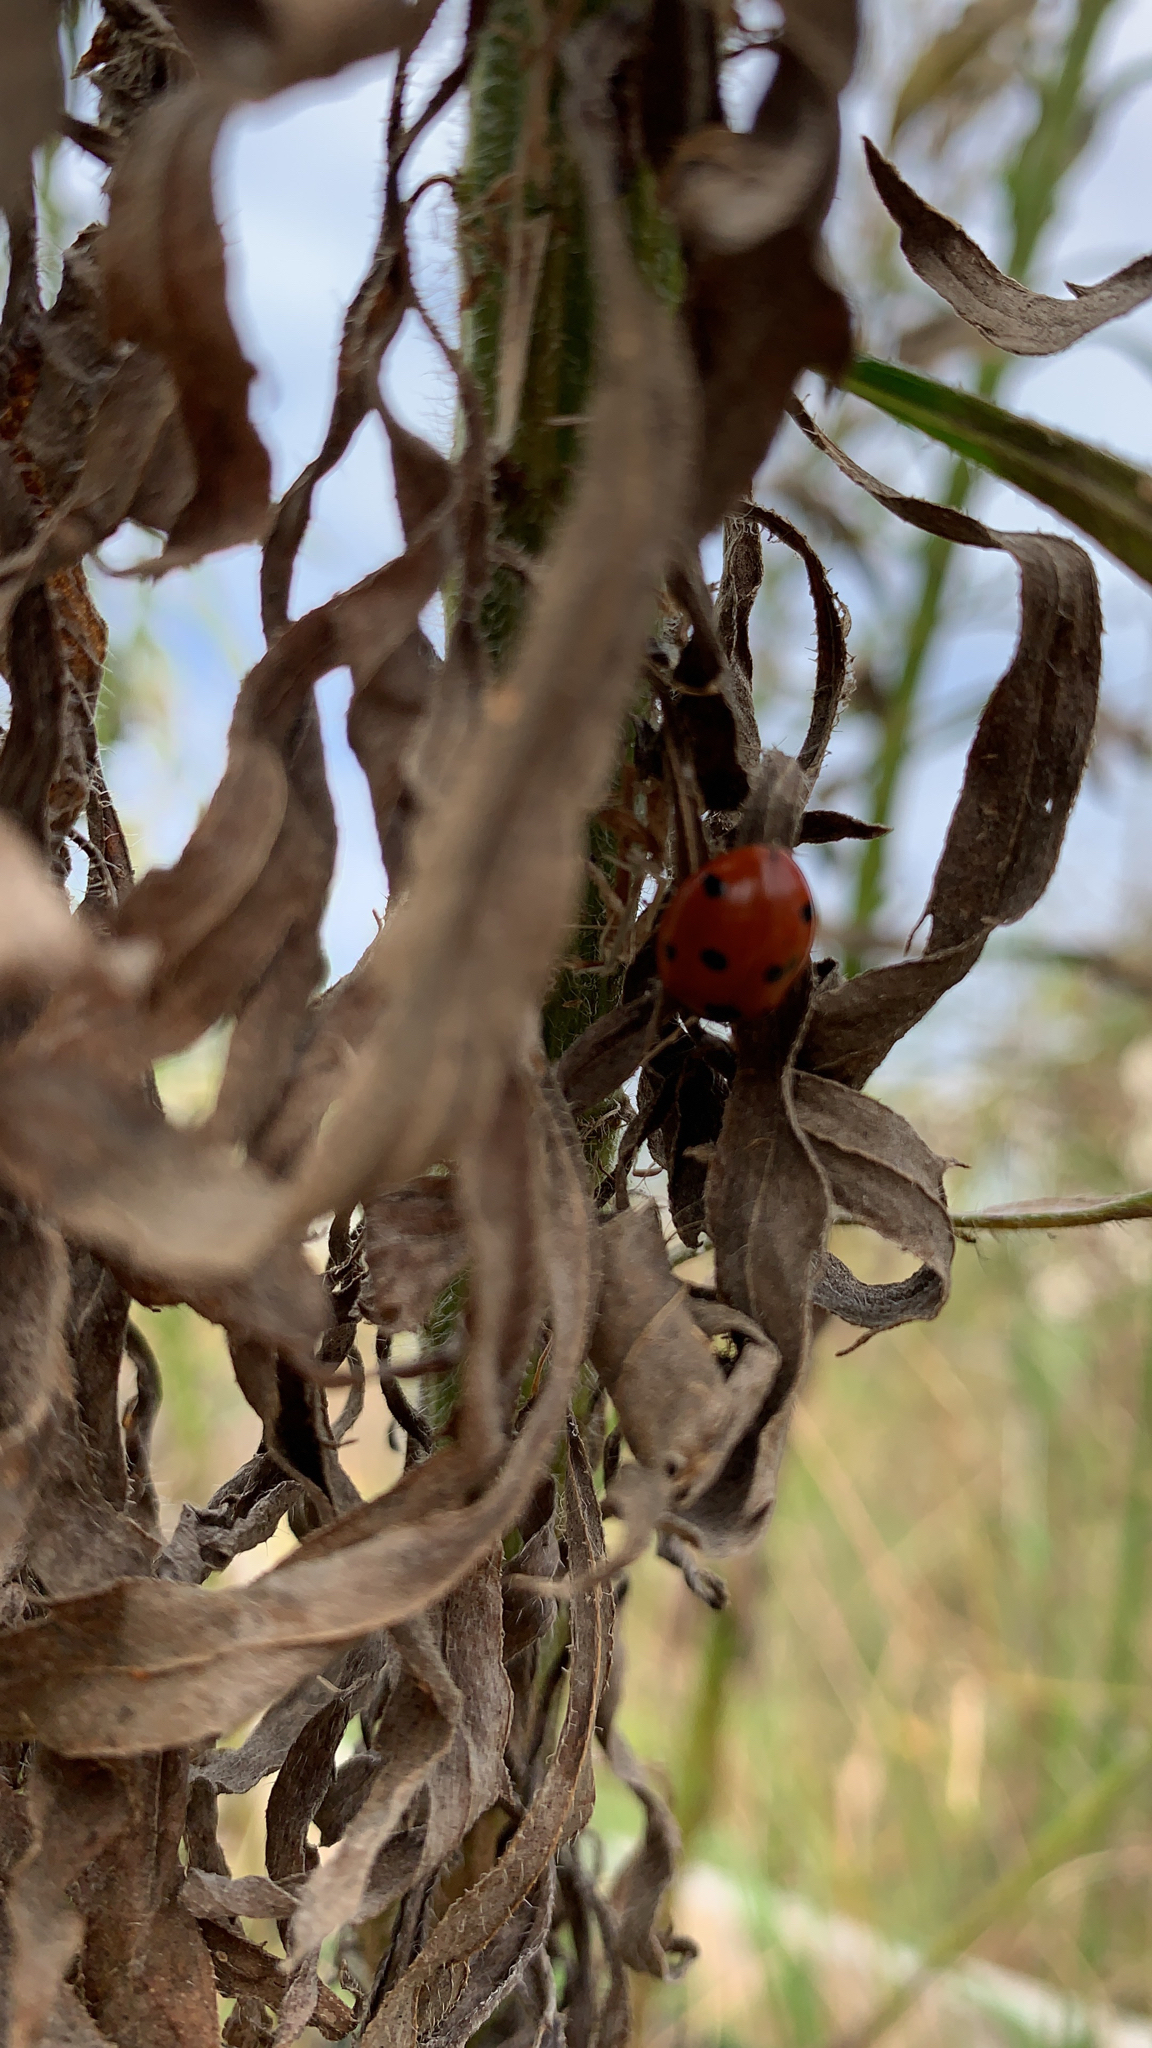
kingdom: Animalia
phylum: Arthropoda
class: Insecta
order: Coleoptera
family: Coccinellidae
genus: Coccinella
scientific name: Coccinella septempunctata
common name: Sevenspotted lady beetle
